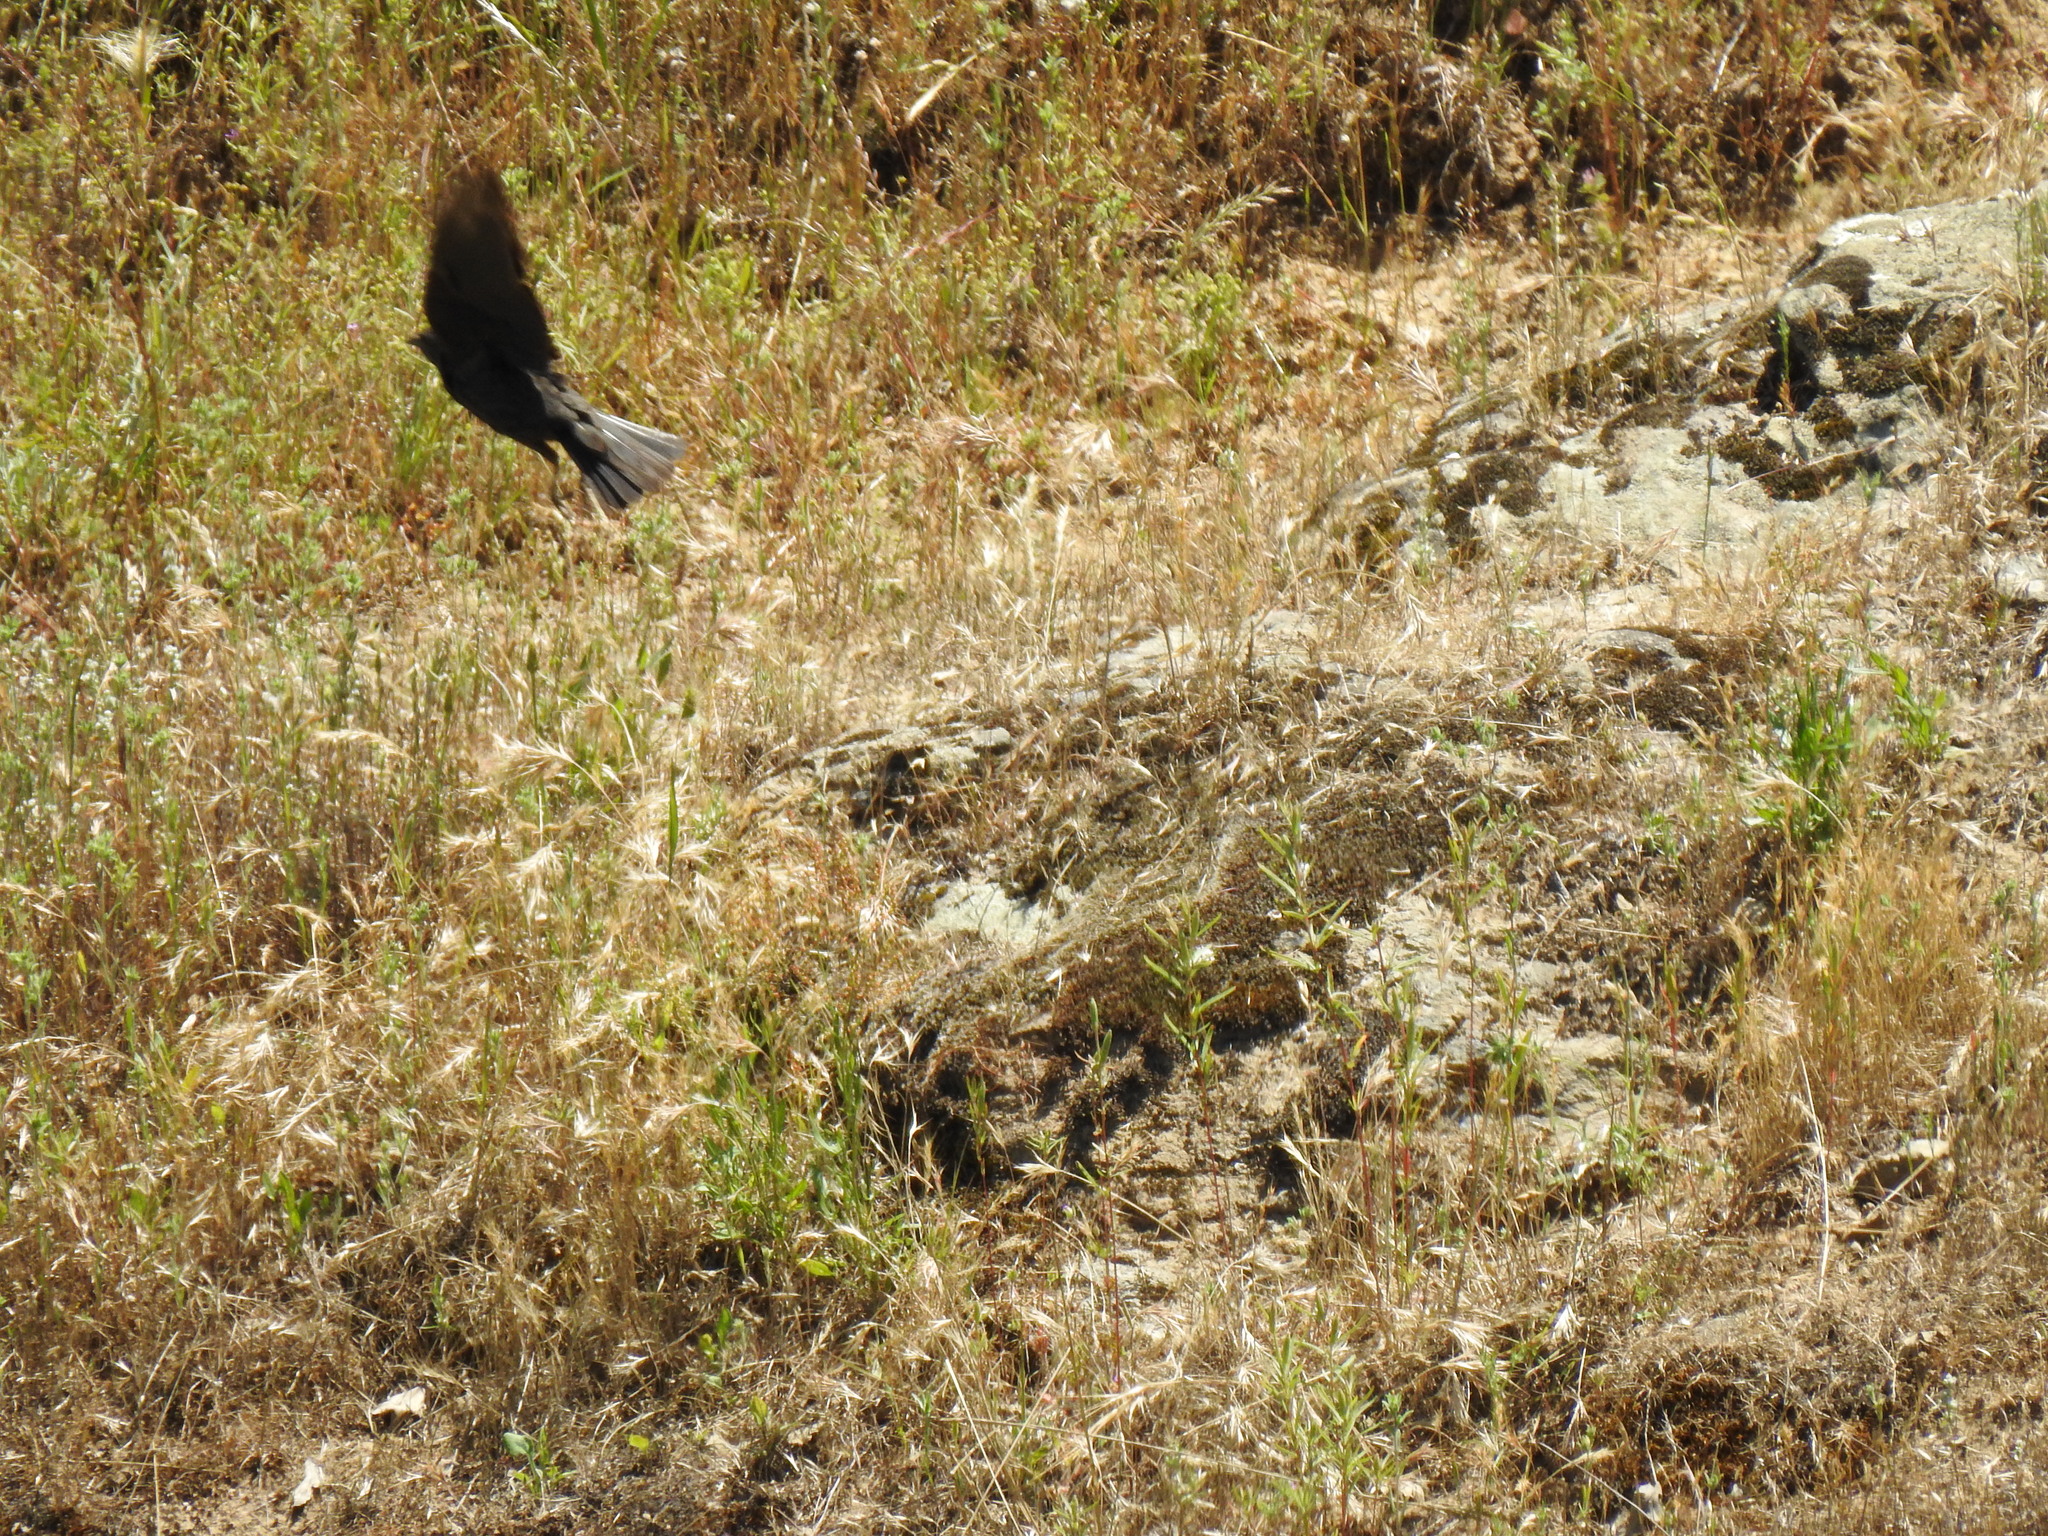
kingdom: Animalia
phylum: Chordata
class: Aves
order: Passeriformes
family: Icteridae
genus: Agelaius
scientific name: Agelaius phoeniceus
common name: Red-winged blackbird
